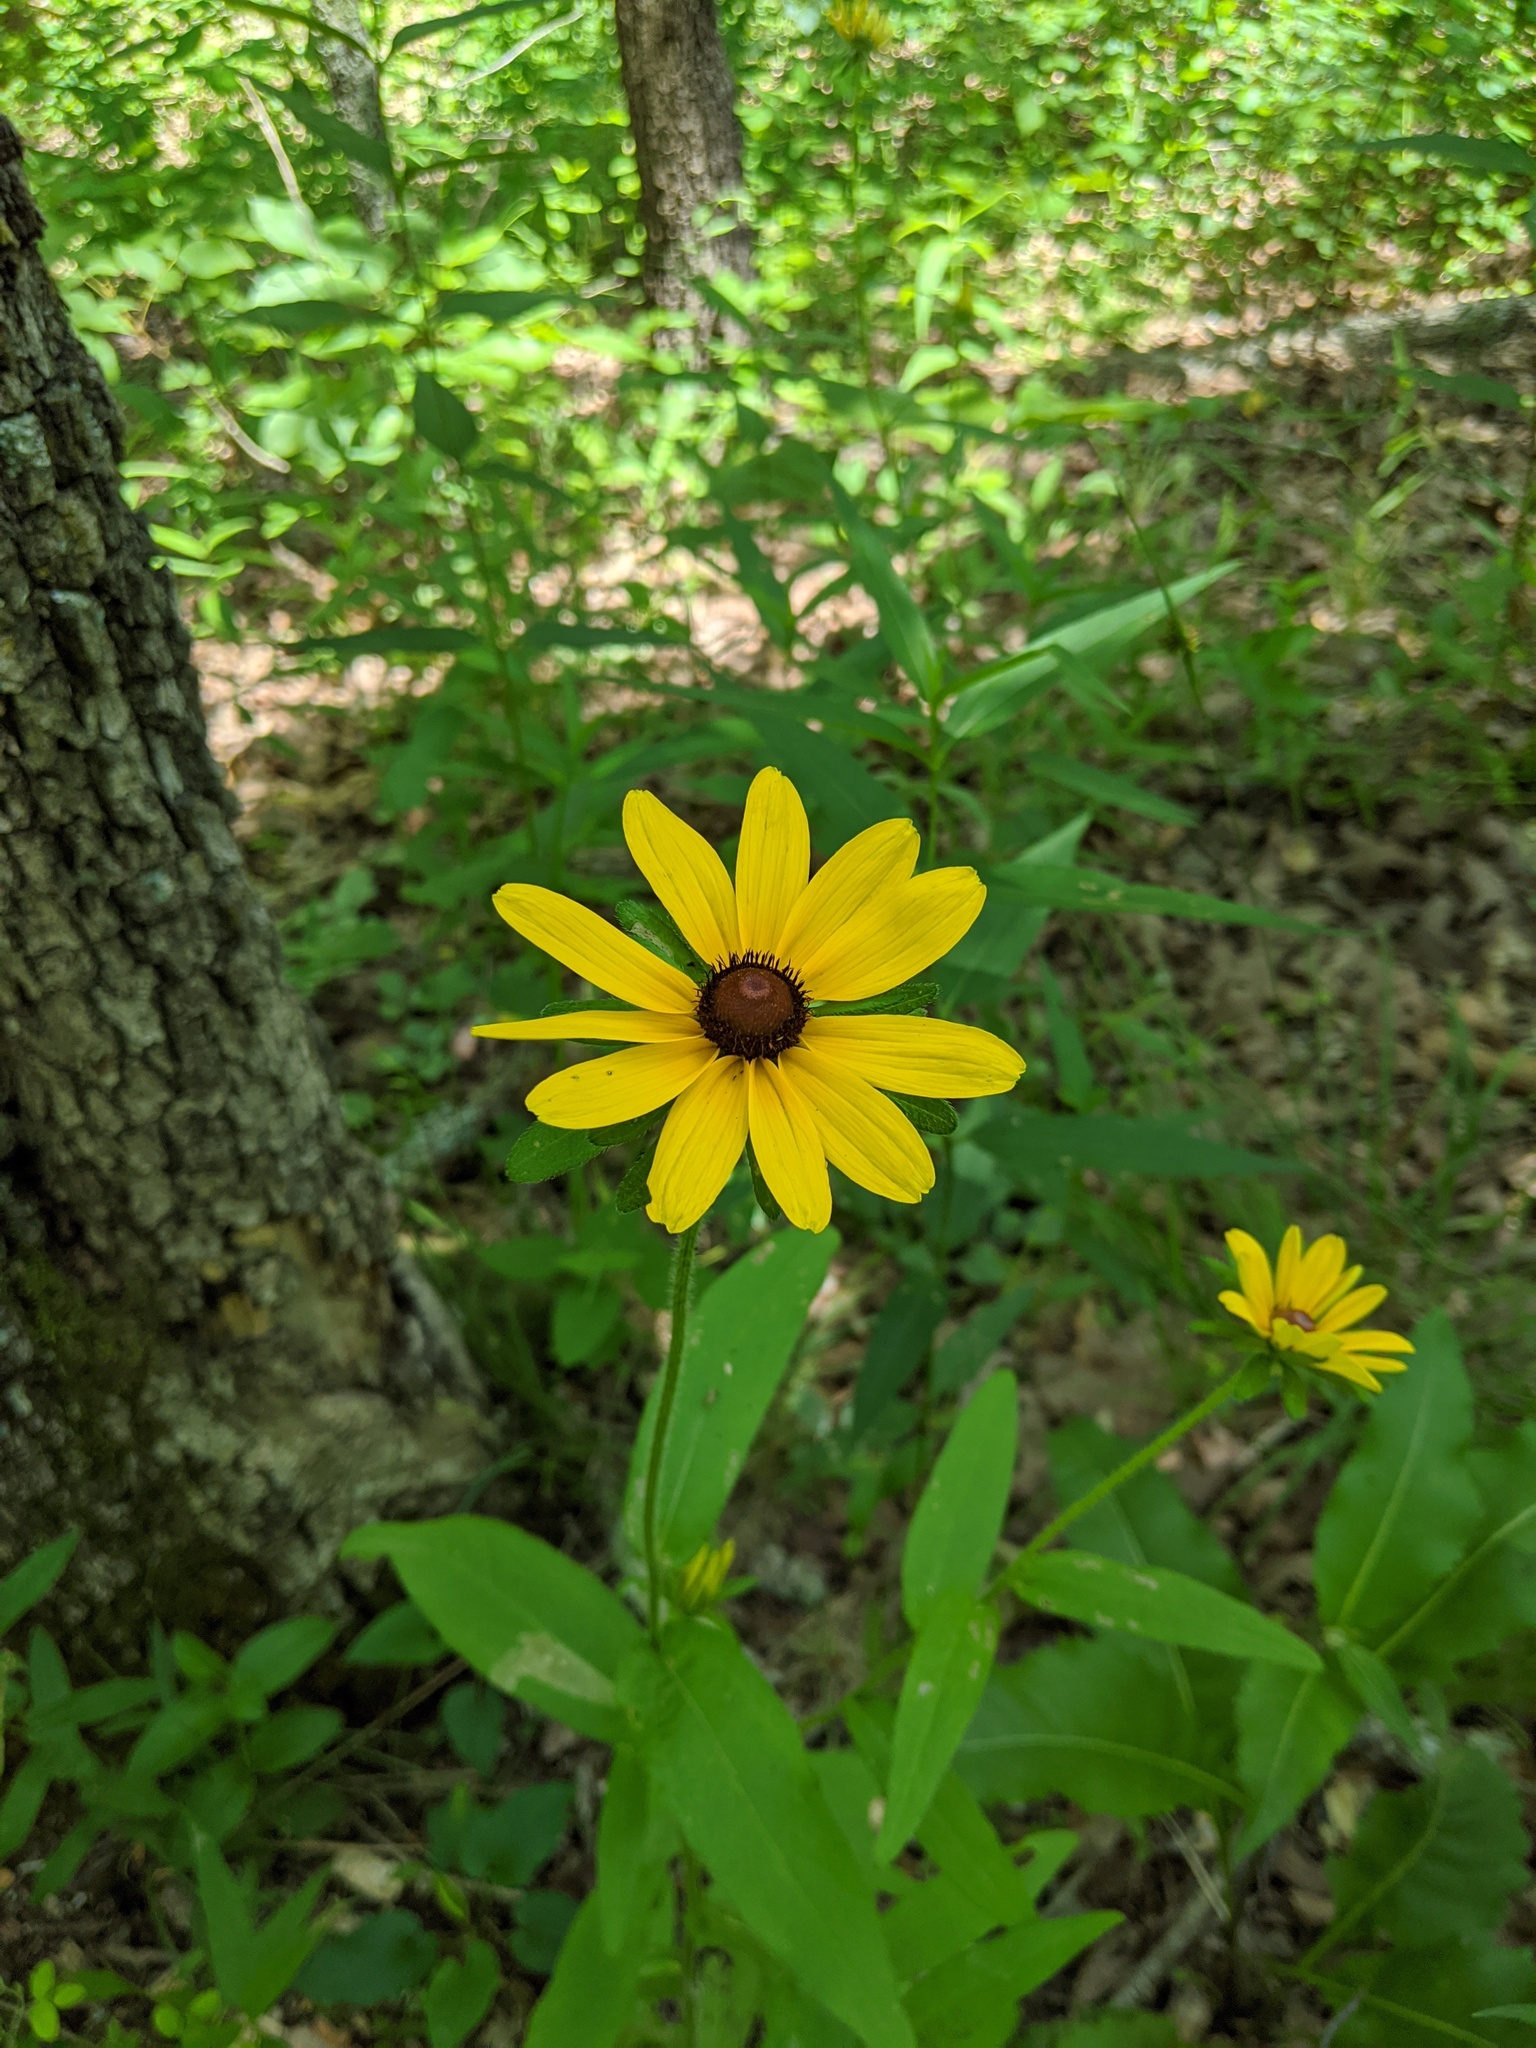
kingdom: Plantae
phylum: Tracheophyta
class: Magnoliopsida
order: Asterales
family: Asteraceae
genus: Rudbeckia
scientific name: Rudbeckia hirta
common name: Black-eyed-susan
